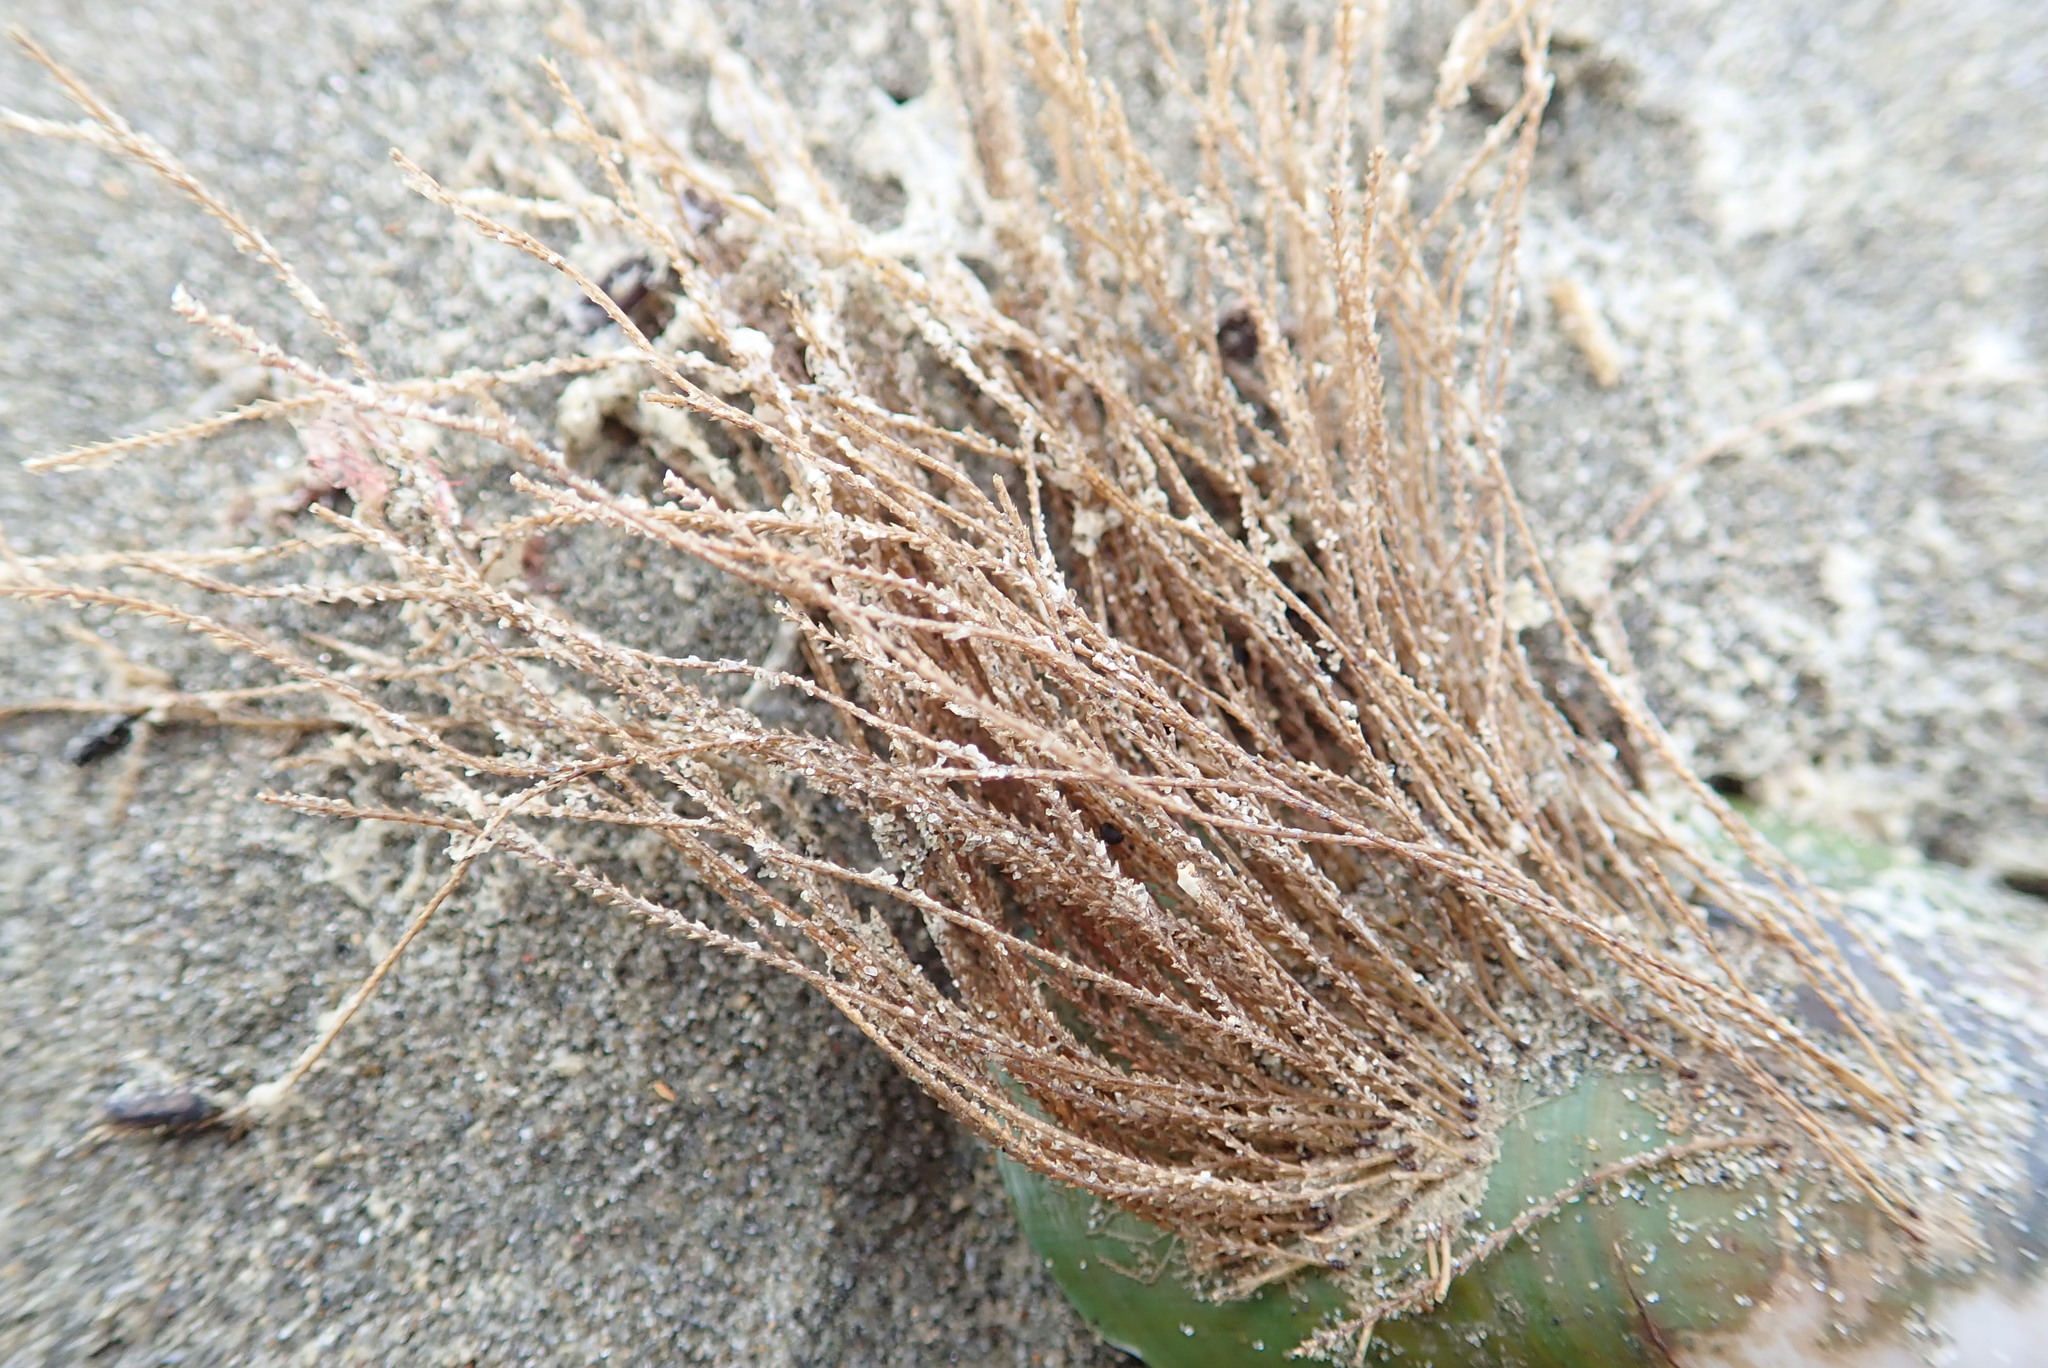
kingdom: Animalia
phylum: Cnidaria
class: Hydrozoa
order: Leptothecata
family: Sertulariidae
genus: Amphisbetia
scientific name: Amphisbetia bispinosa
